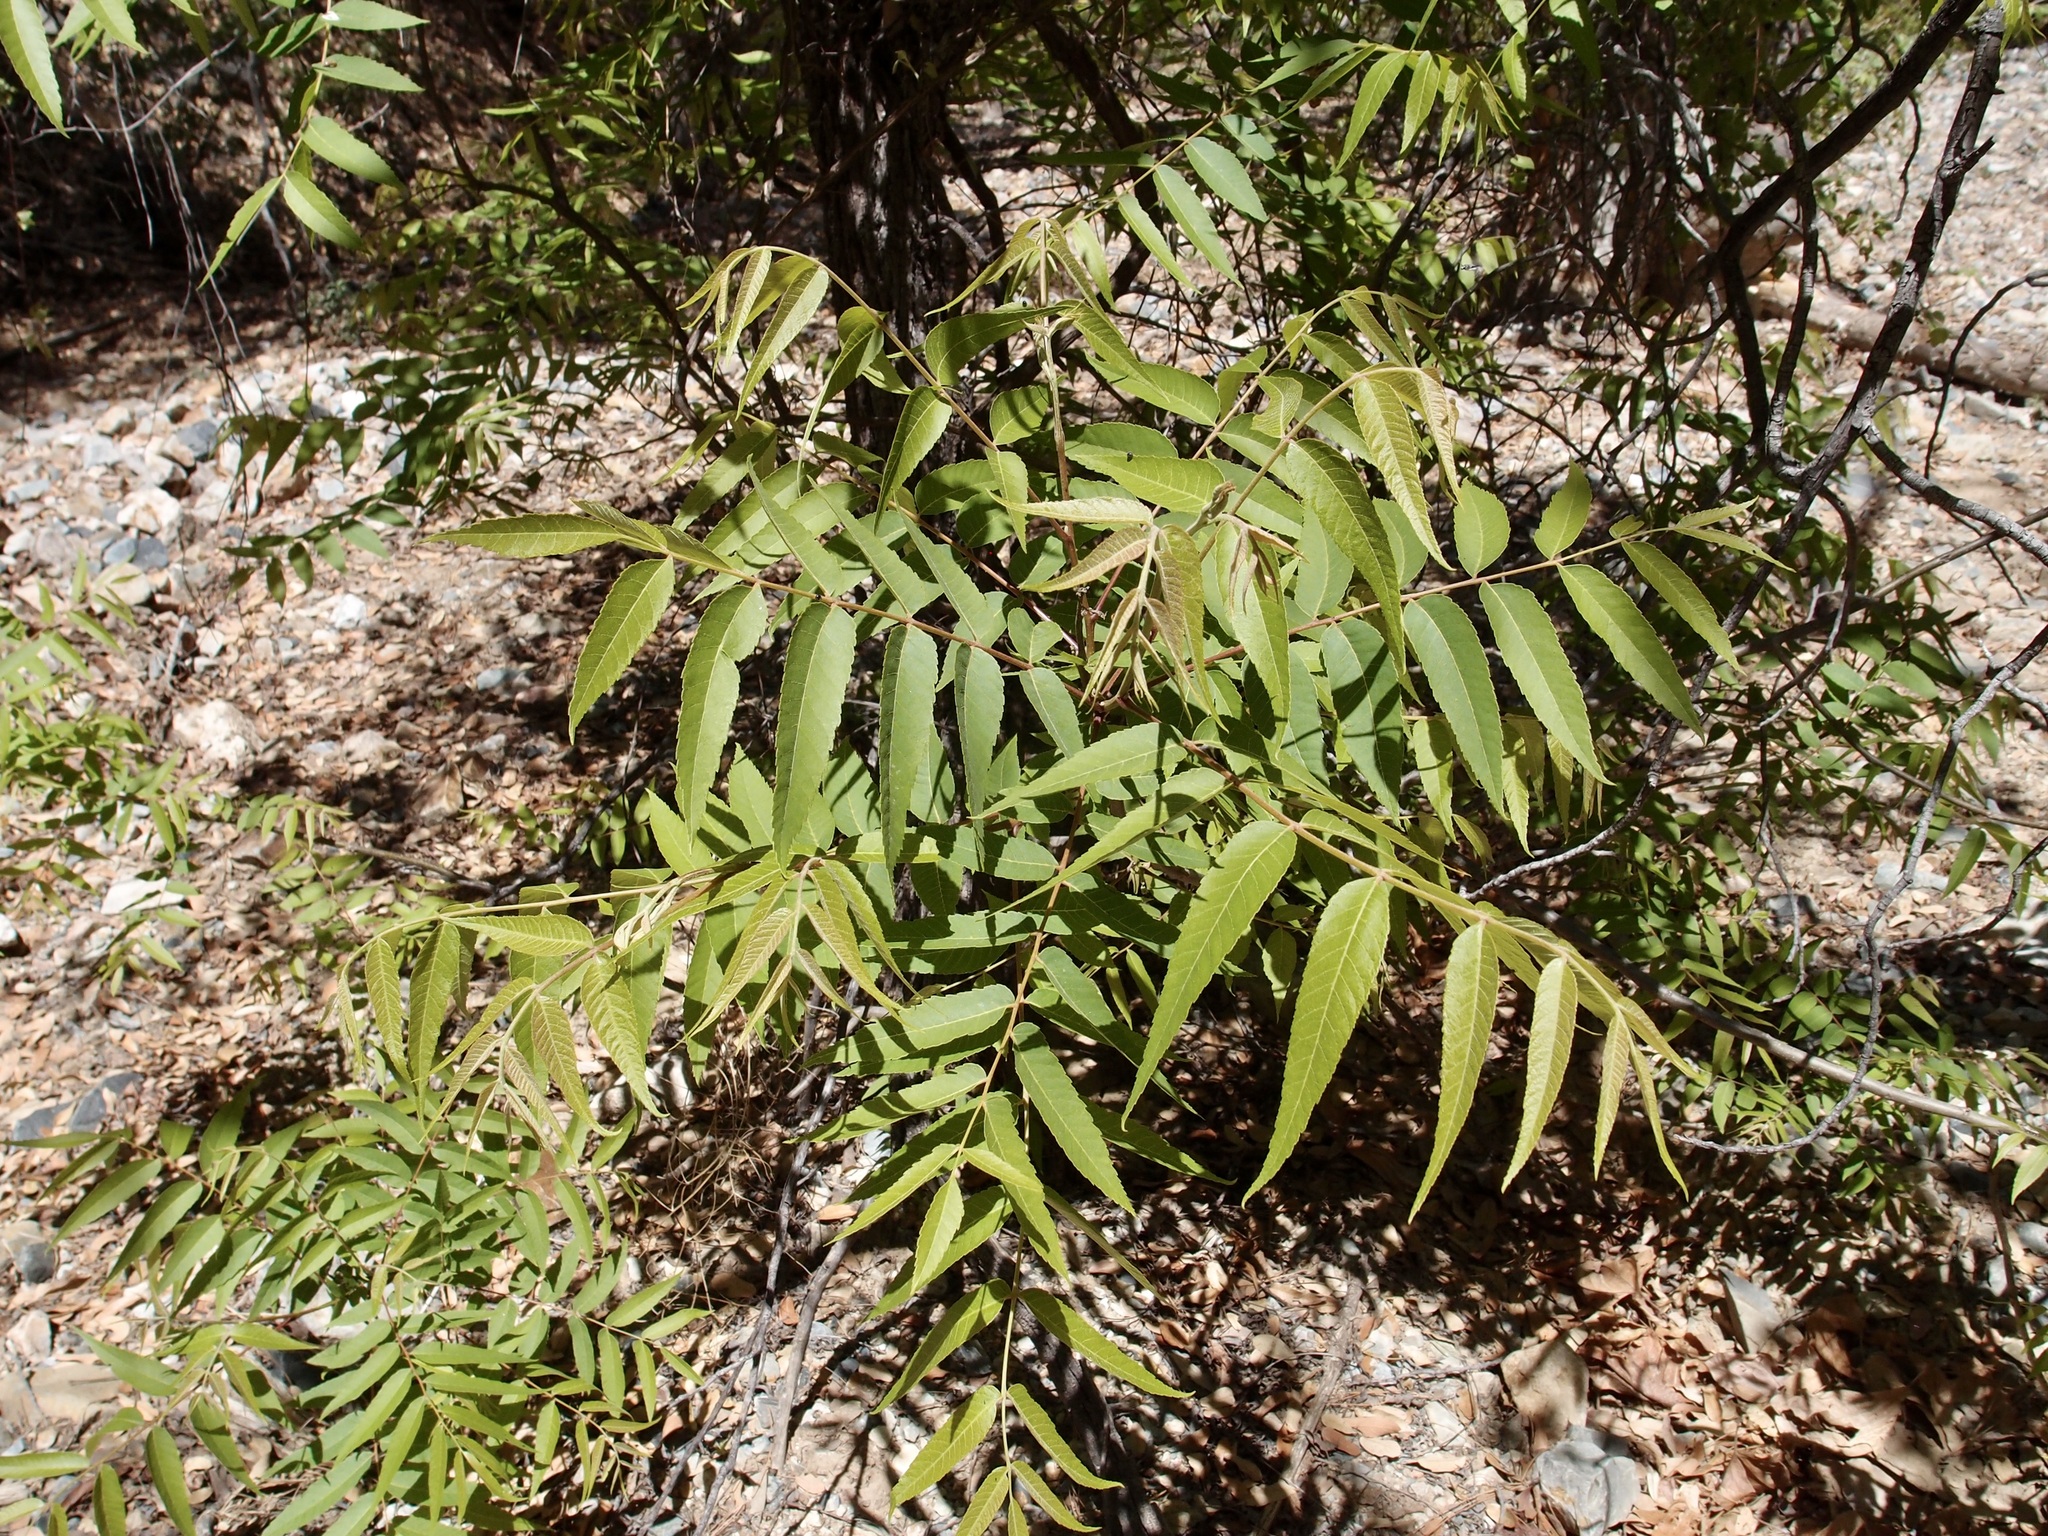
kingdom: Plantae
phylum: Tracheophyta
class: Magnoliopsida
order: Fagales
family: Juglandaceae
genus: Juglans
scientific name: Juglans major
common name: Arizona walnut
